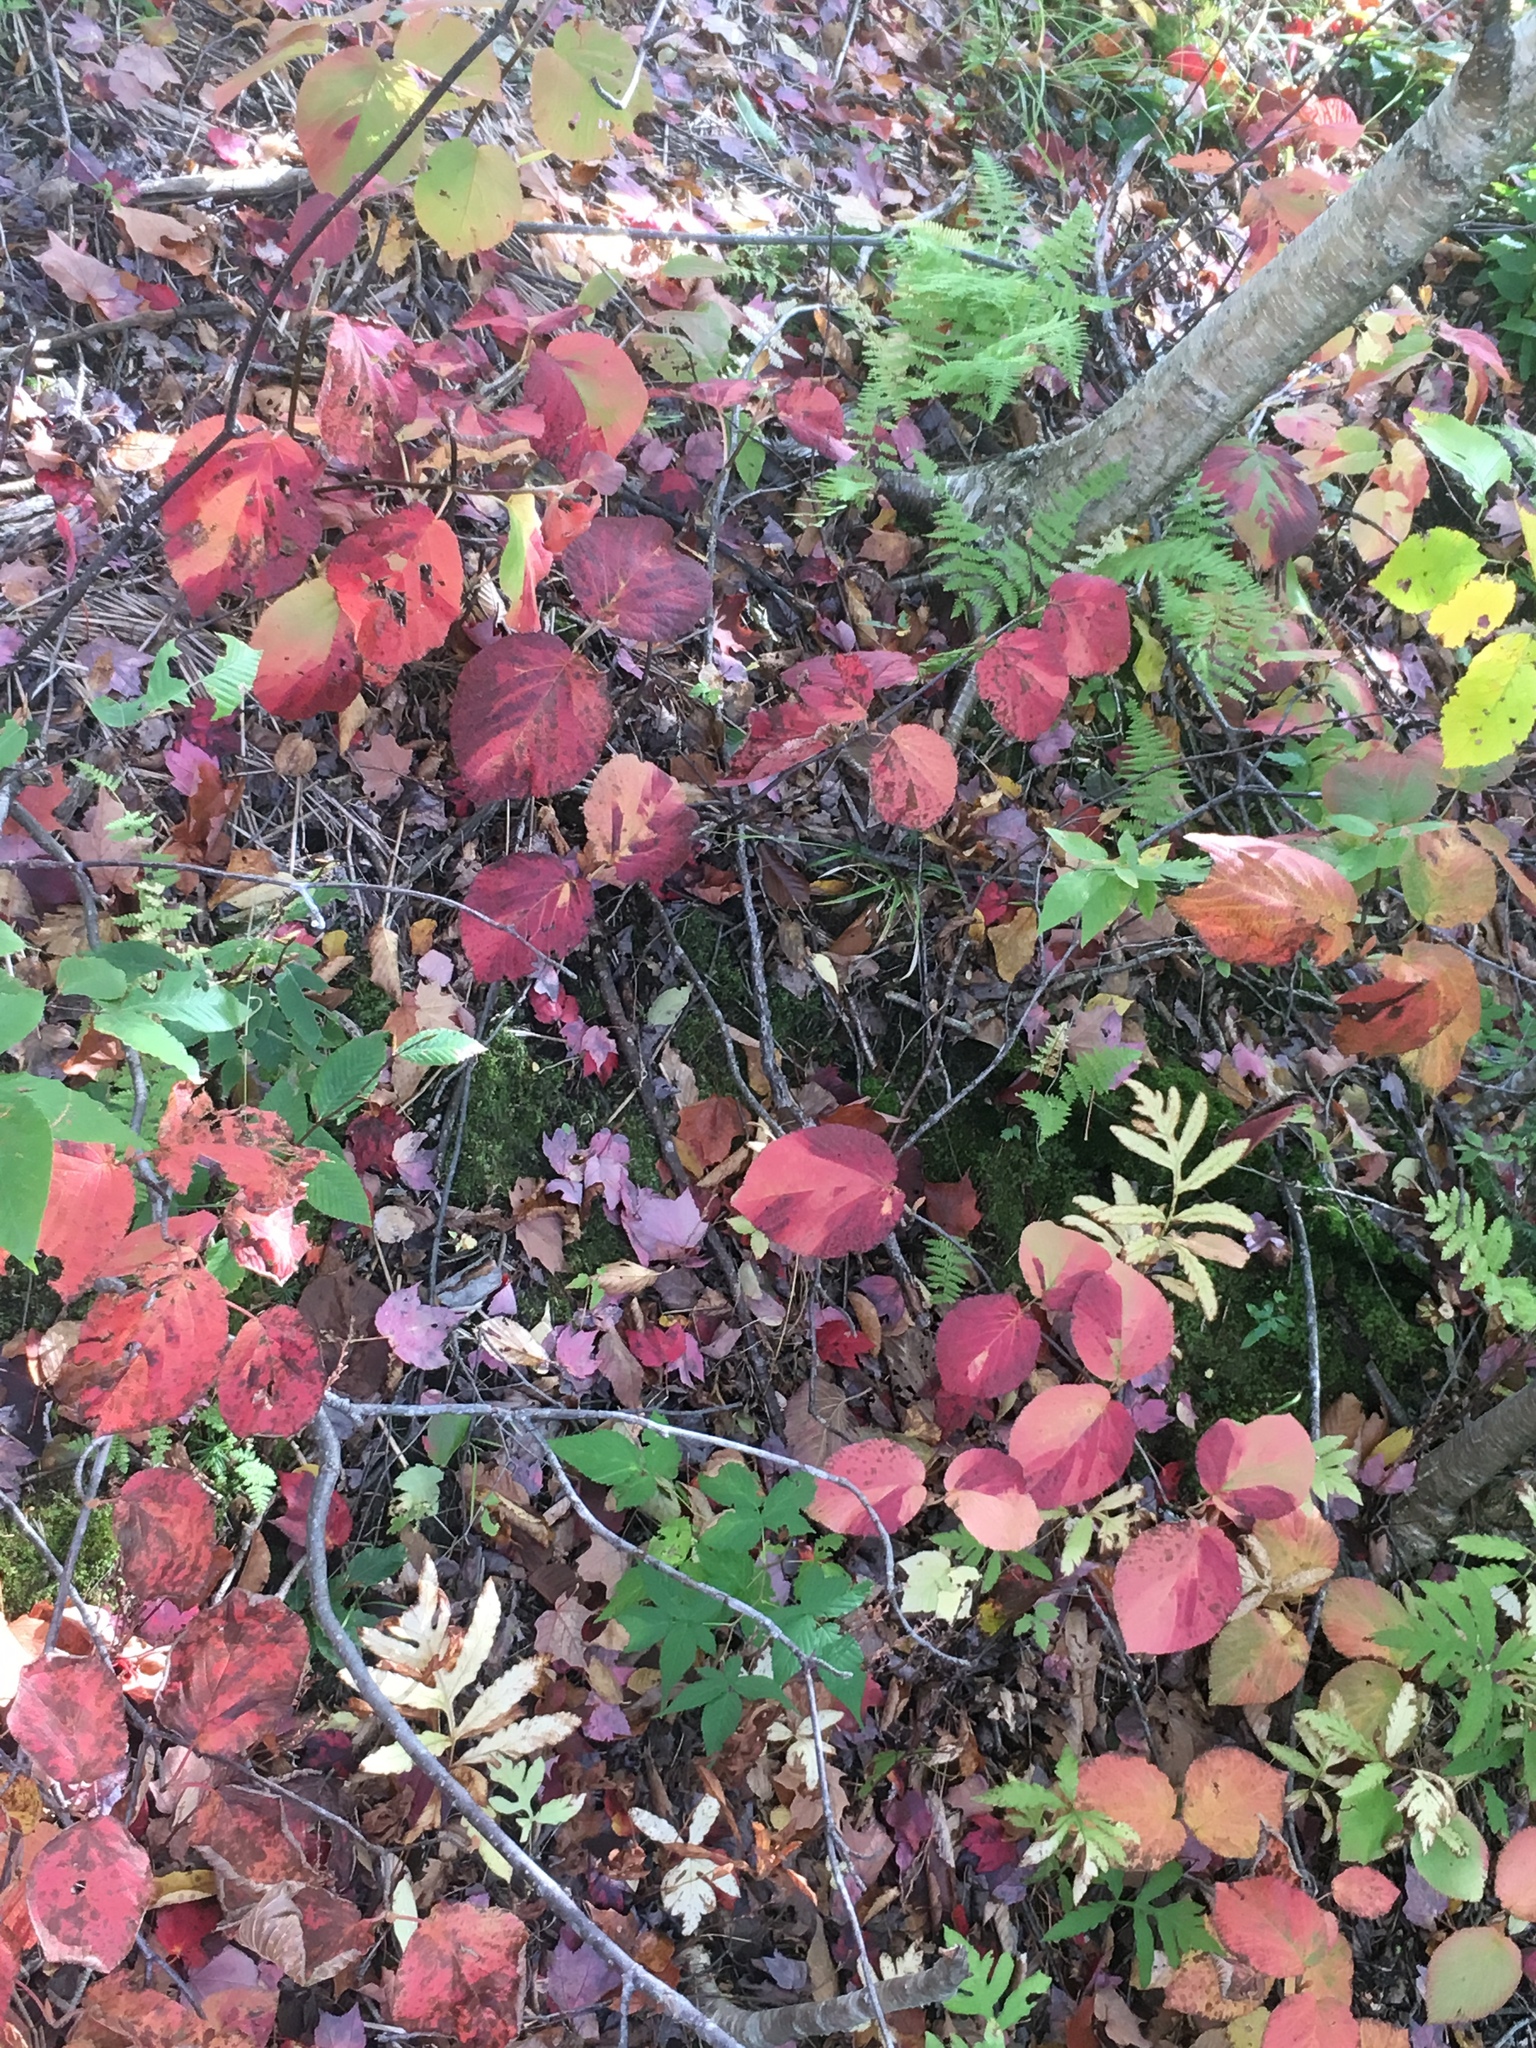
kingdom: Plantae
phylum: Tracheophyta
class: Magnoliopsida
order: Dipsacales
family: Viburnaceae
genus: Viburnum
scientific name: Viburnum lantanoides
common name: Hobblebush
